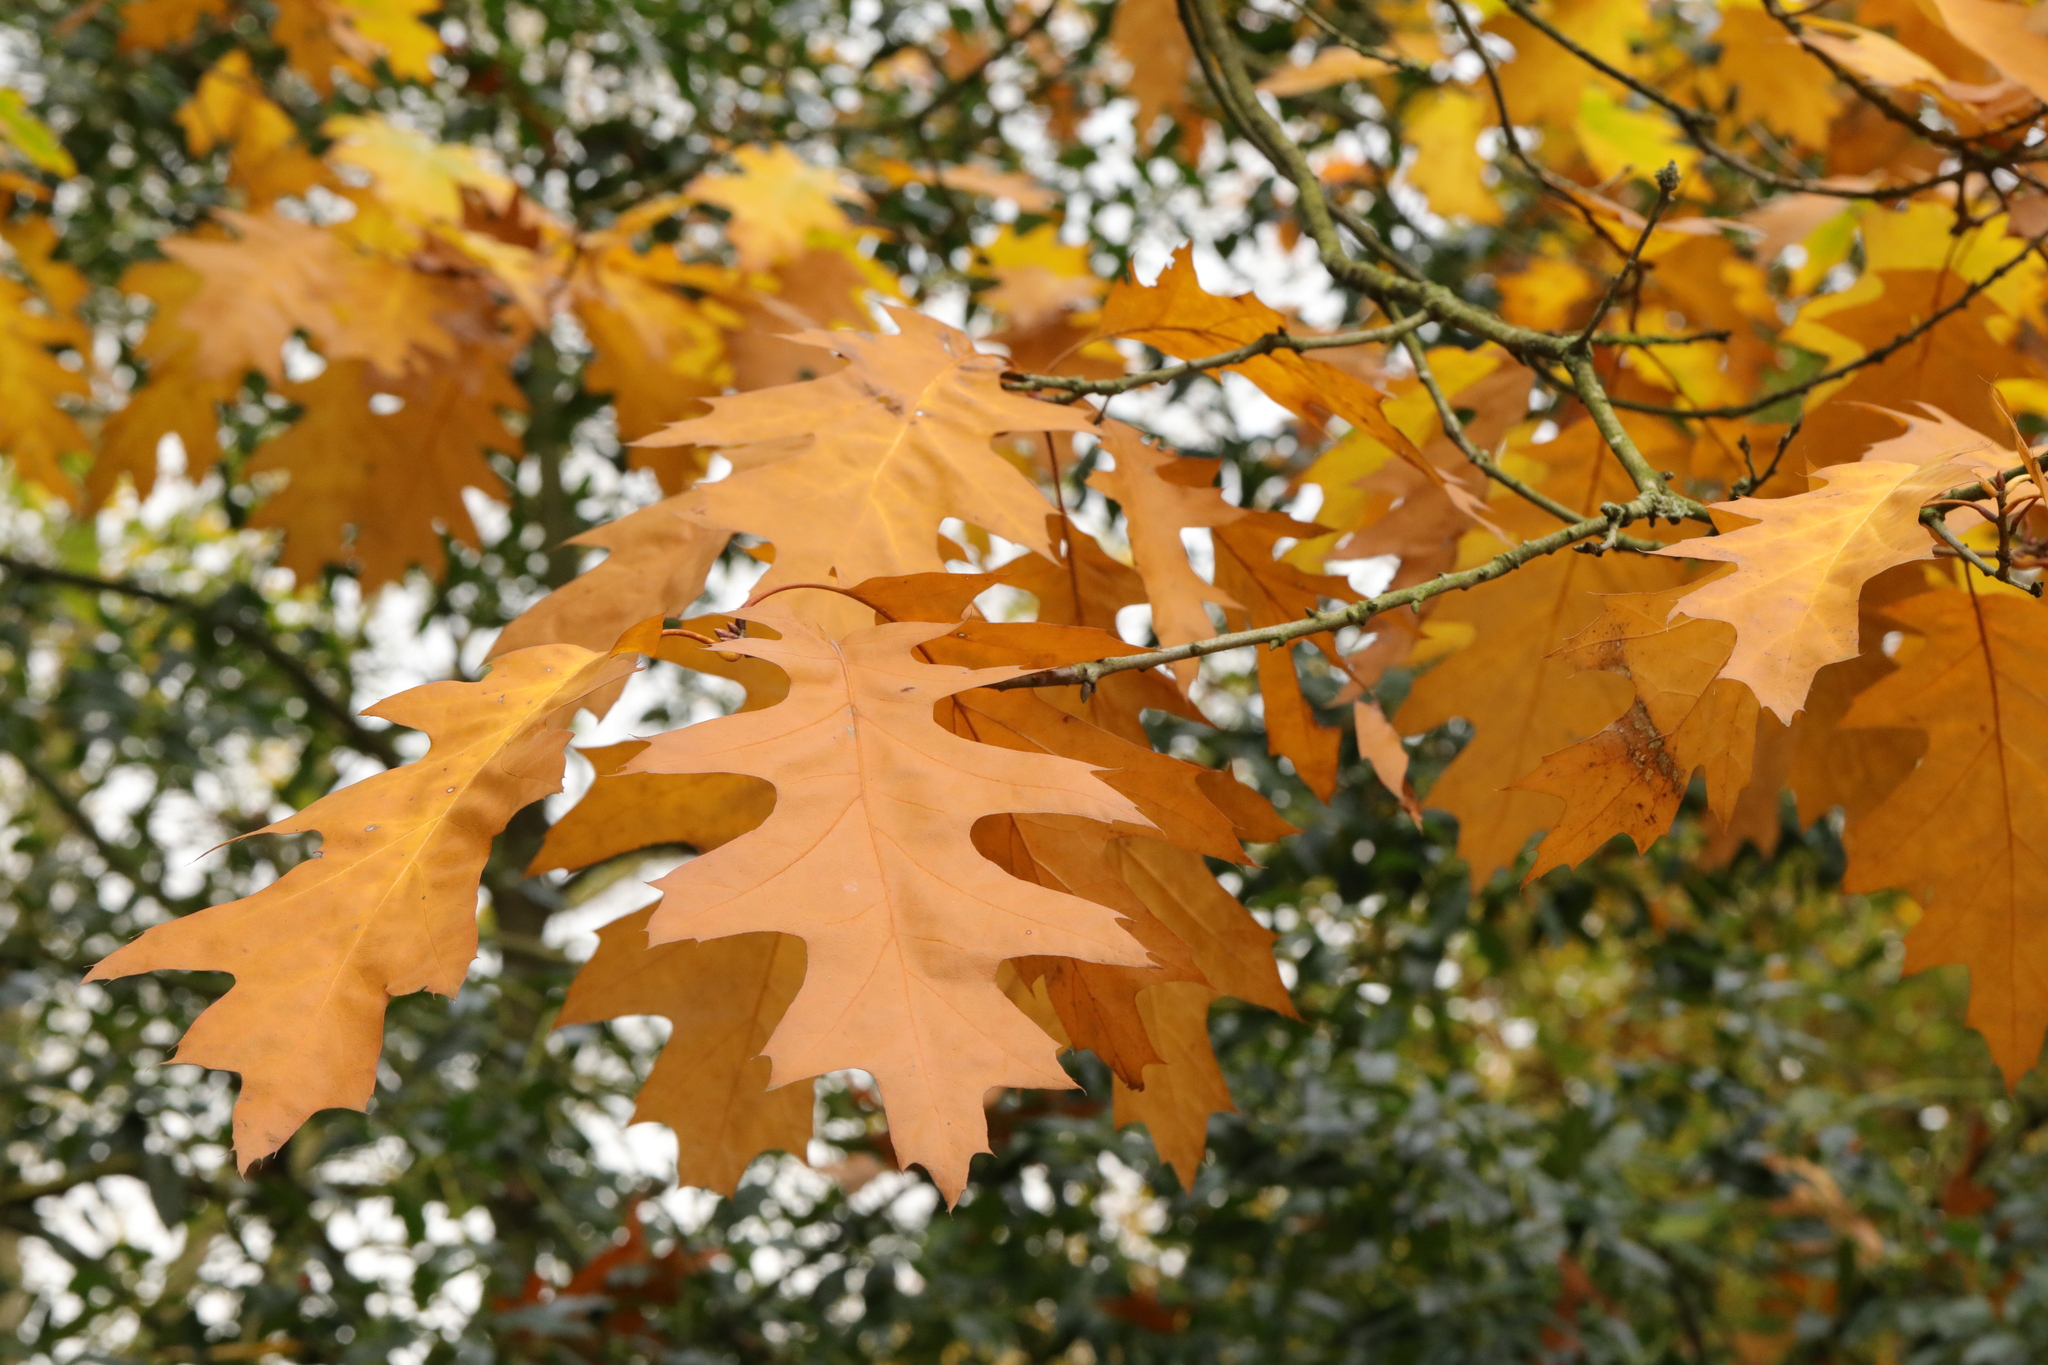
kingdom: Plantae
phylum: Tracheophyta
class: Magnoliopsida
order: Fagales
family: Fagaceae
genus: Quercus
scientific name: Quercus rubra
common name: Red oak
